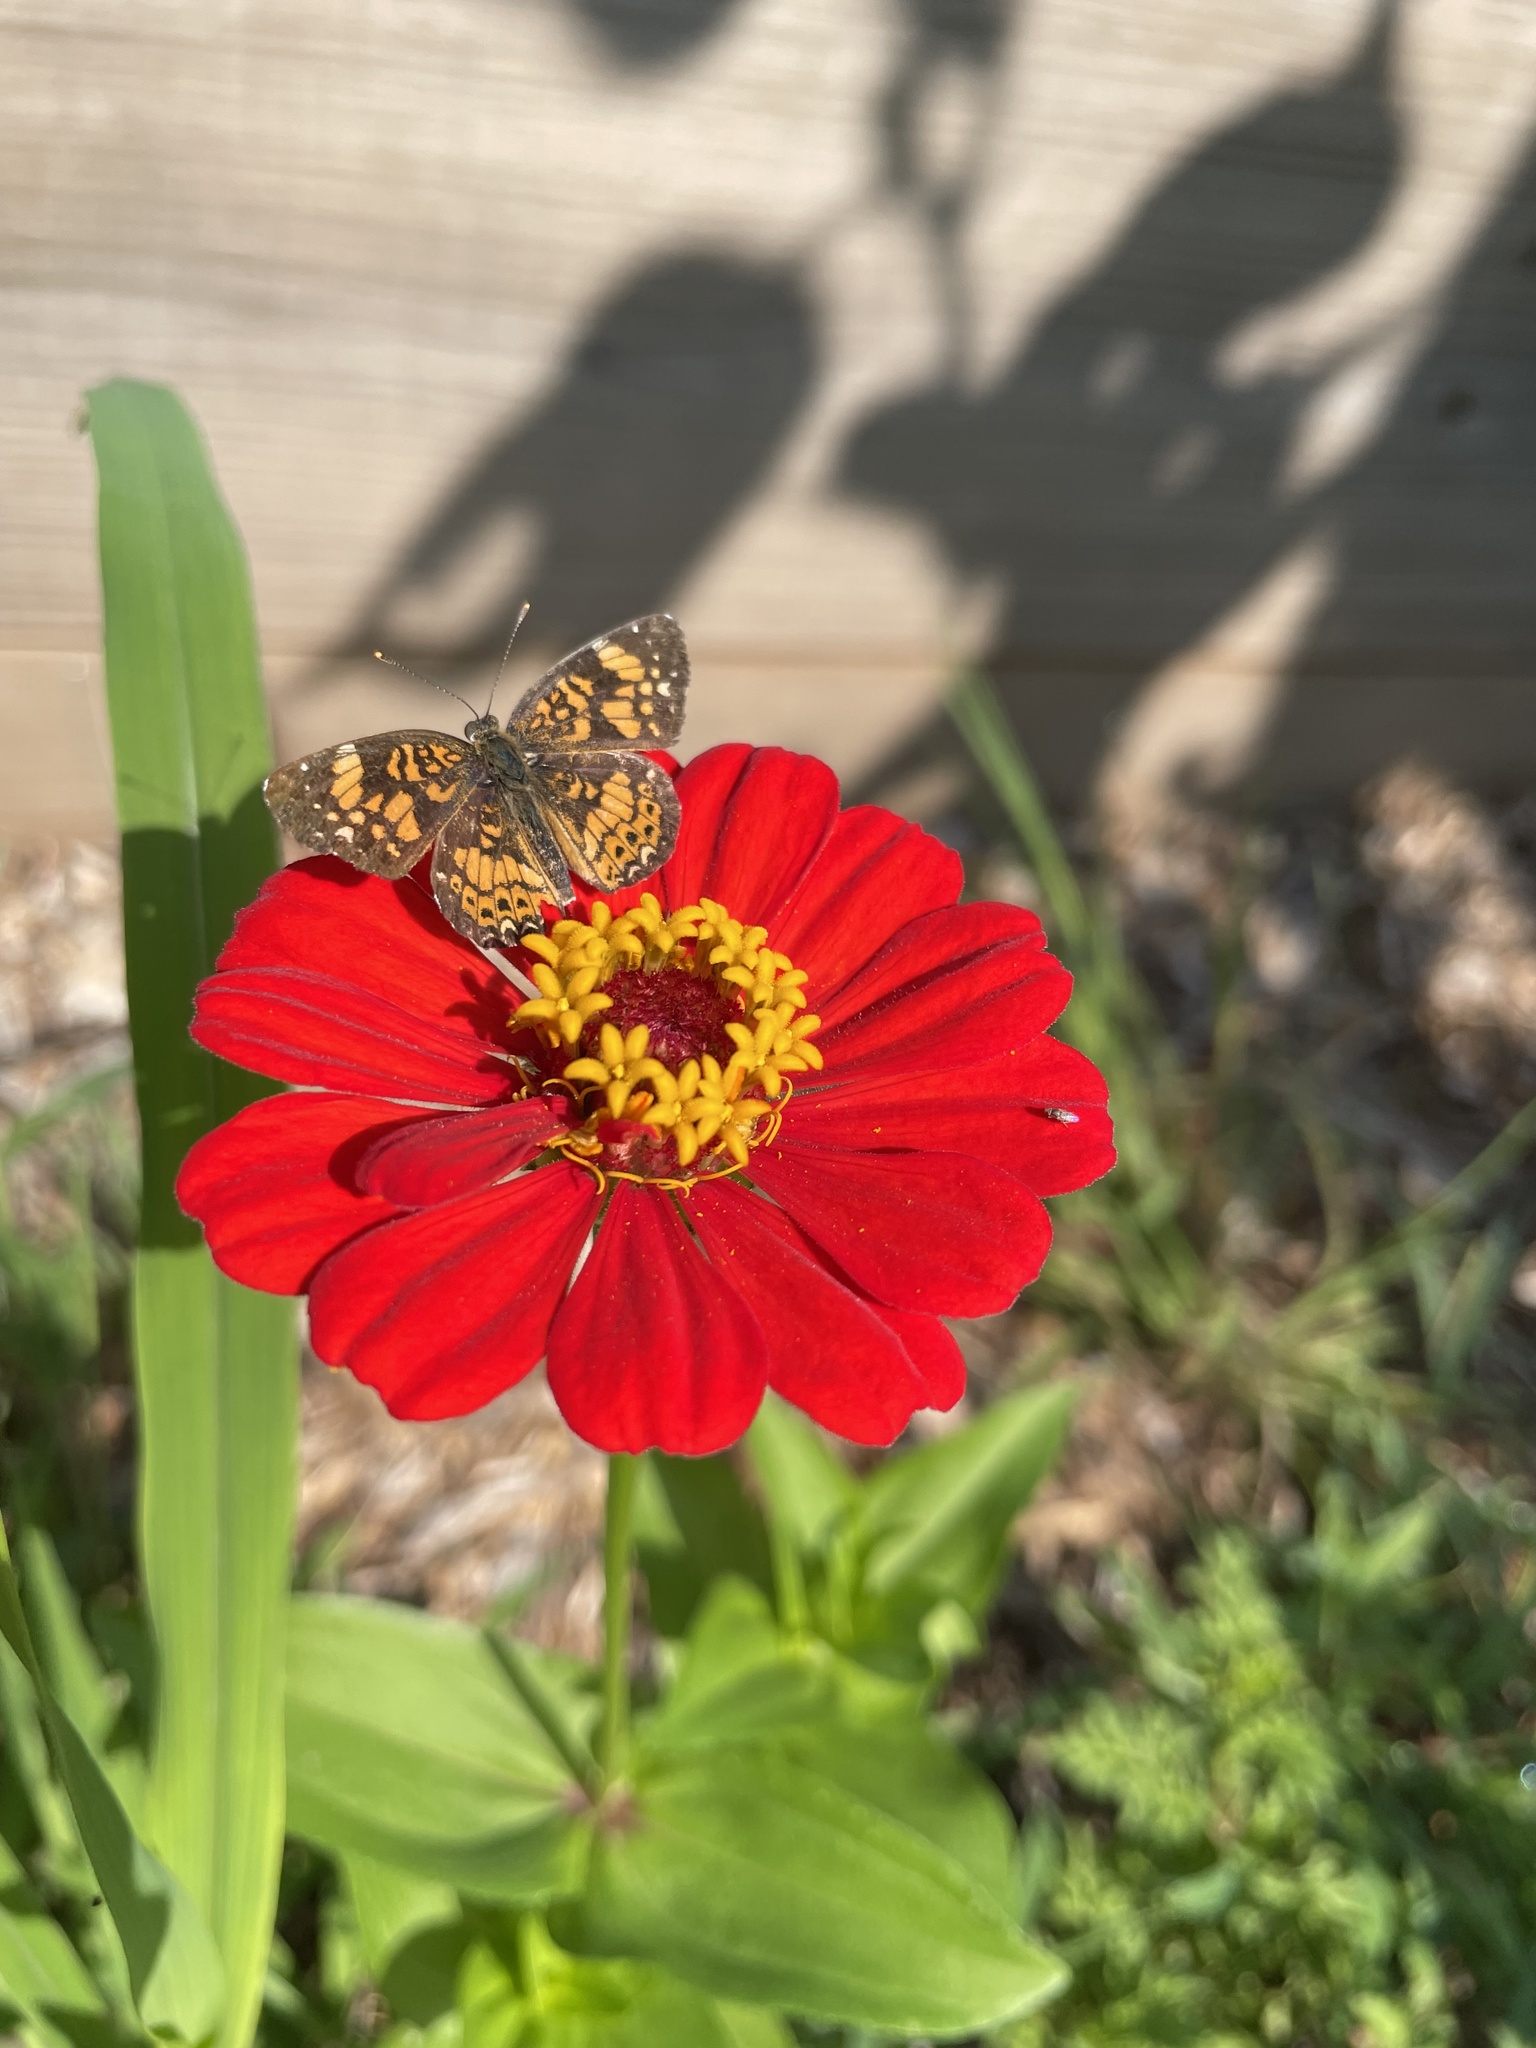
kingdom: Animalia
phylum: Arthropoda
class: Insecta
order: Lepidoptera
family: Nymphalidae
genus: Chlosyne
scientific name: Chlosyne gorgone
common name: Gorgone checkerspot
